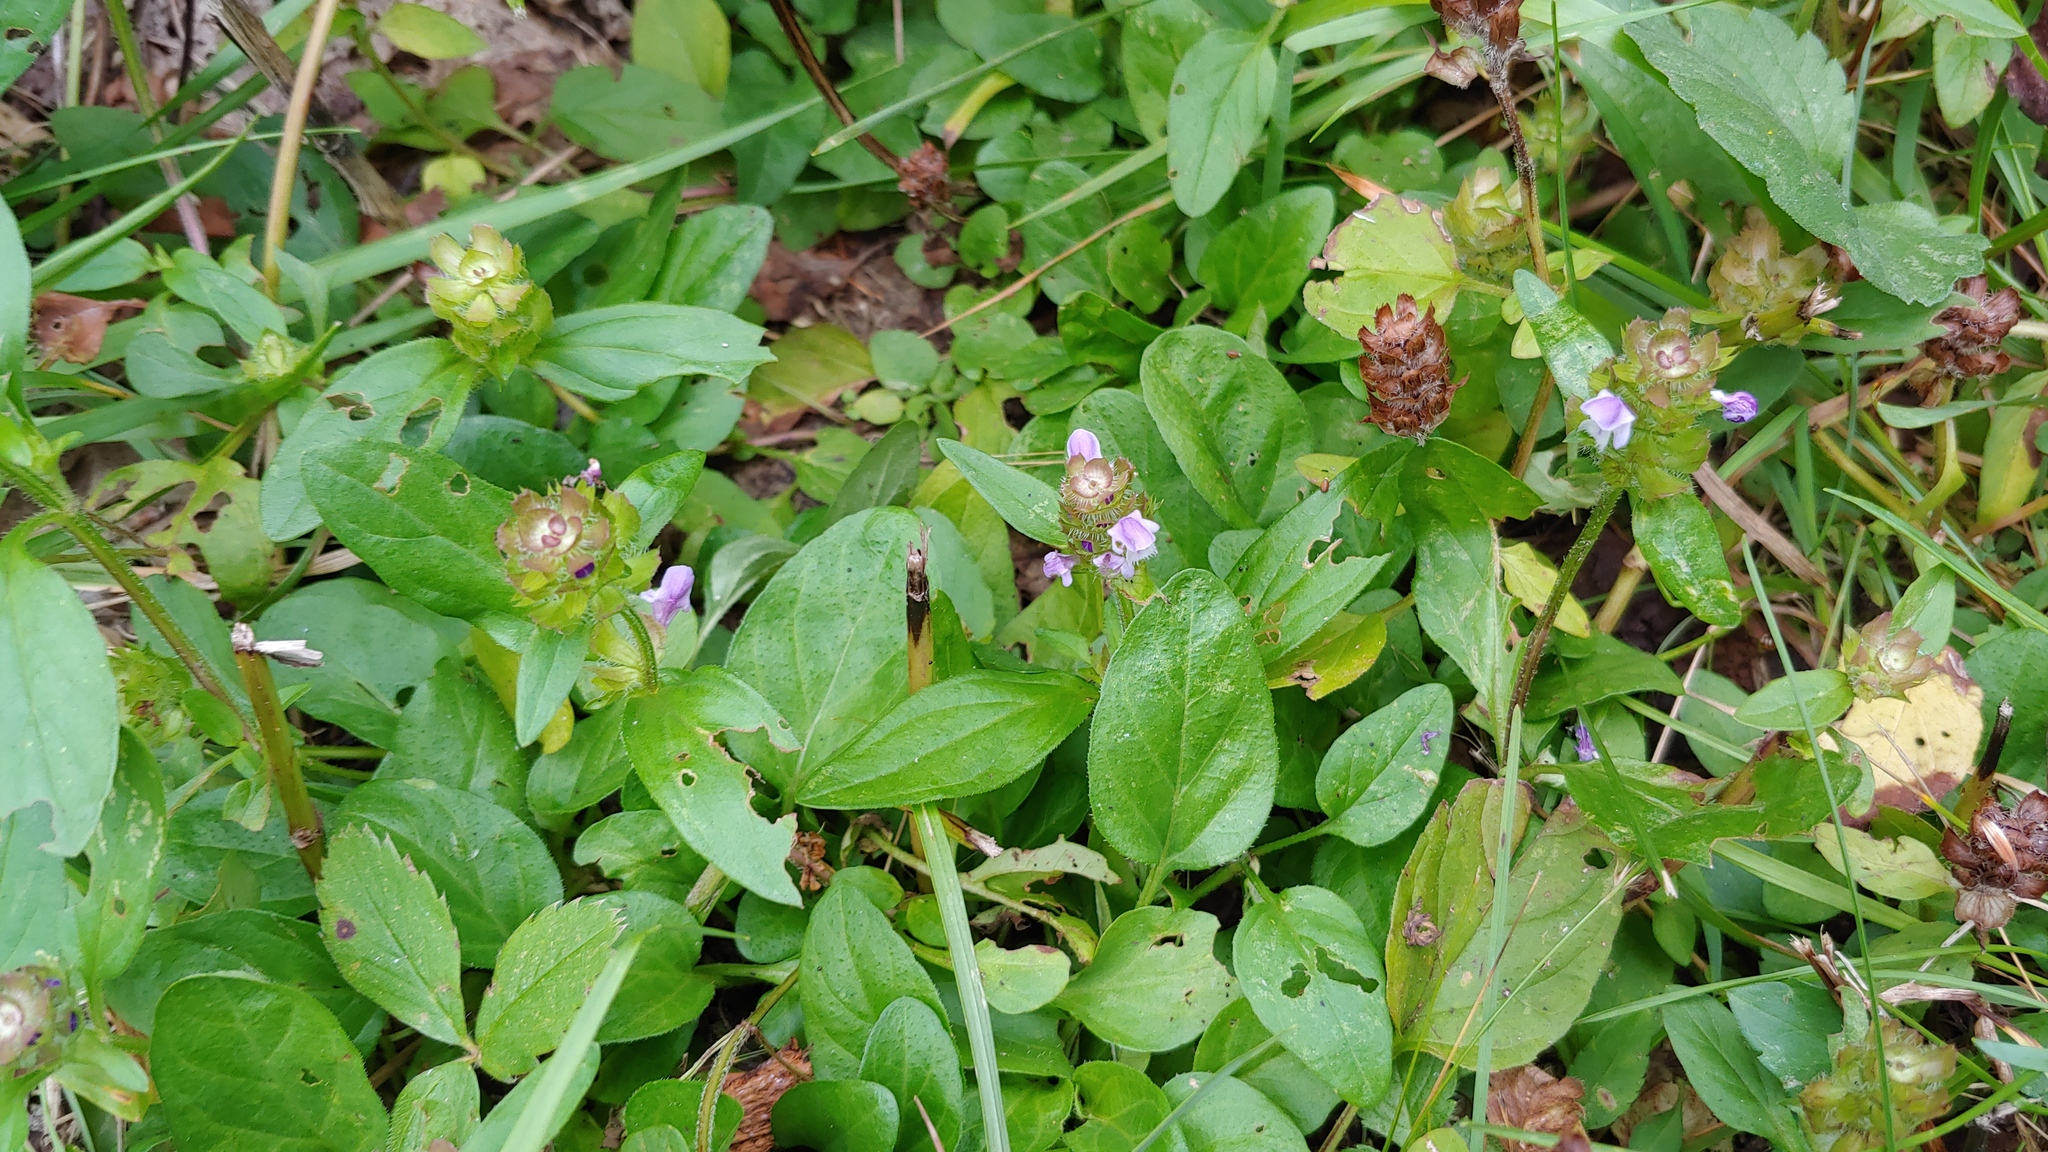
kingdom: Plantae
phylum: Tracheophyta
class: Magnoliopsida
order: Lamiales
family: Lamiaceae
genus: Prunella
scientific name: Prunella vulgaris
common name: Heal-all
